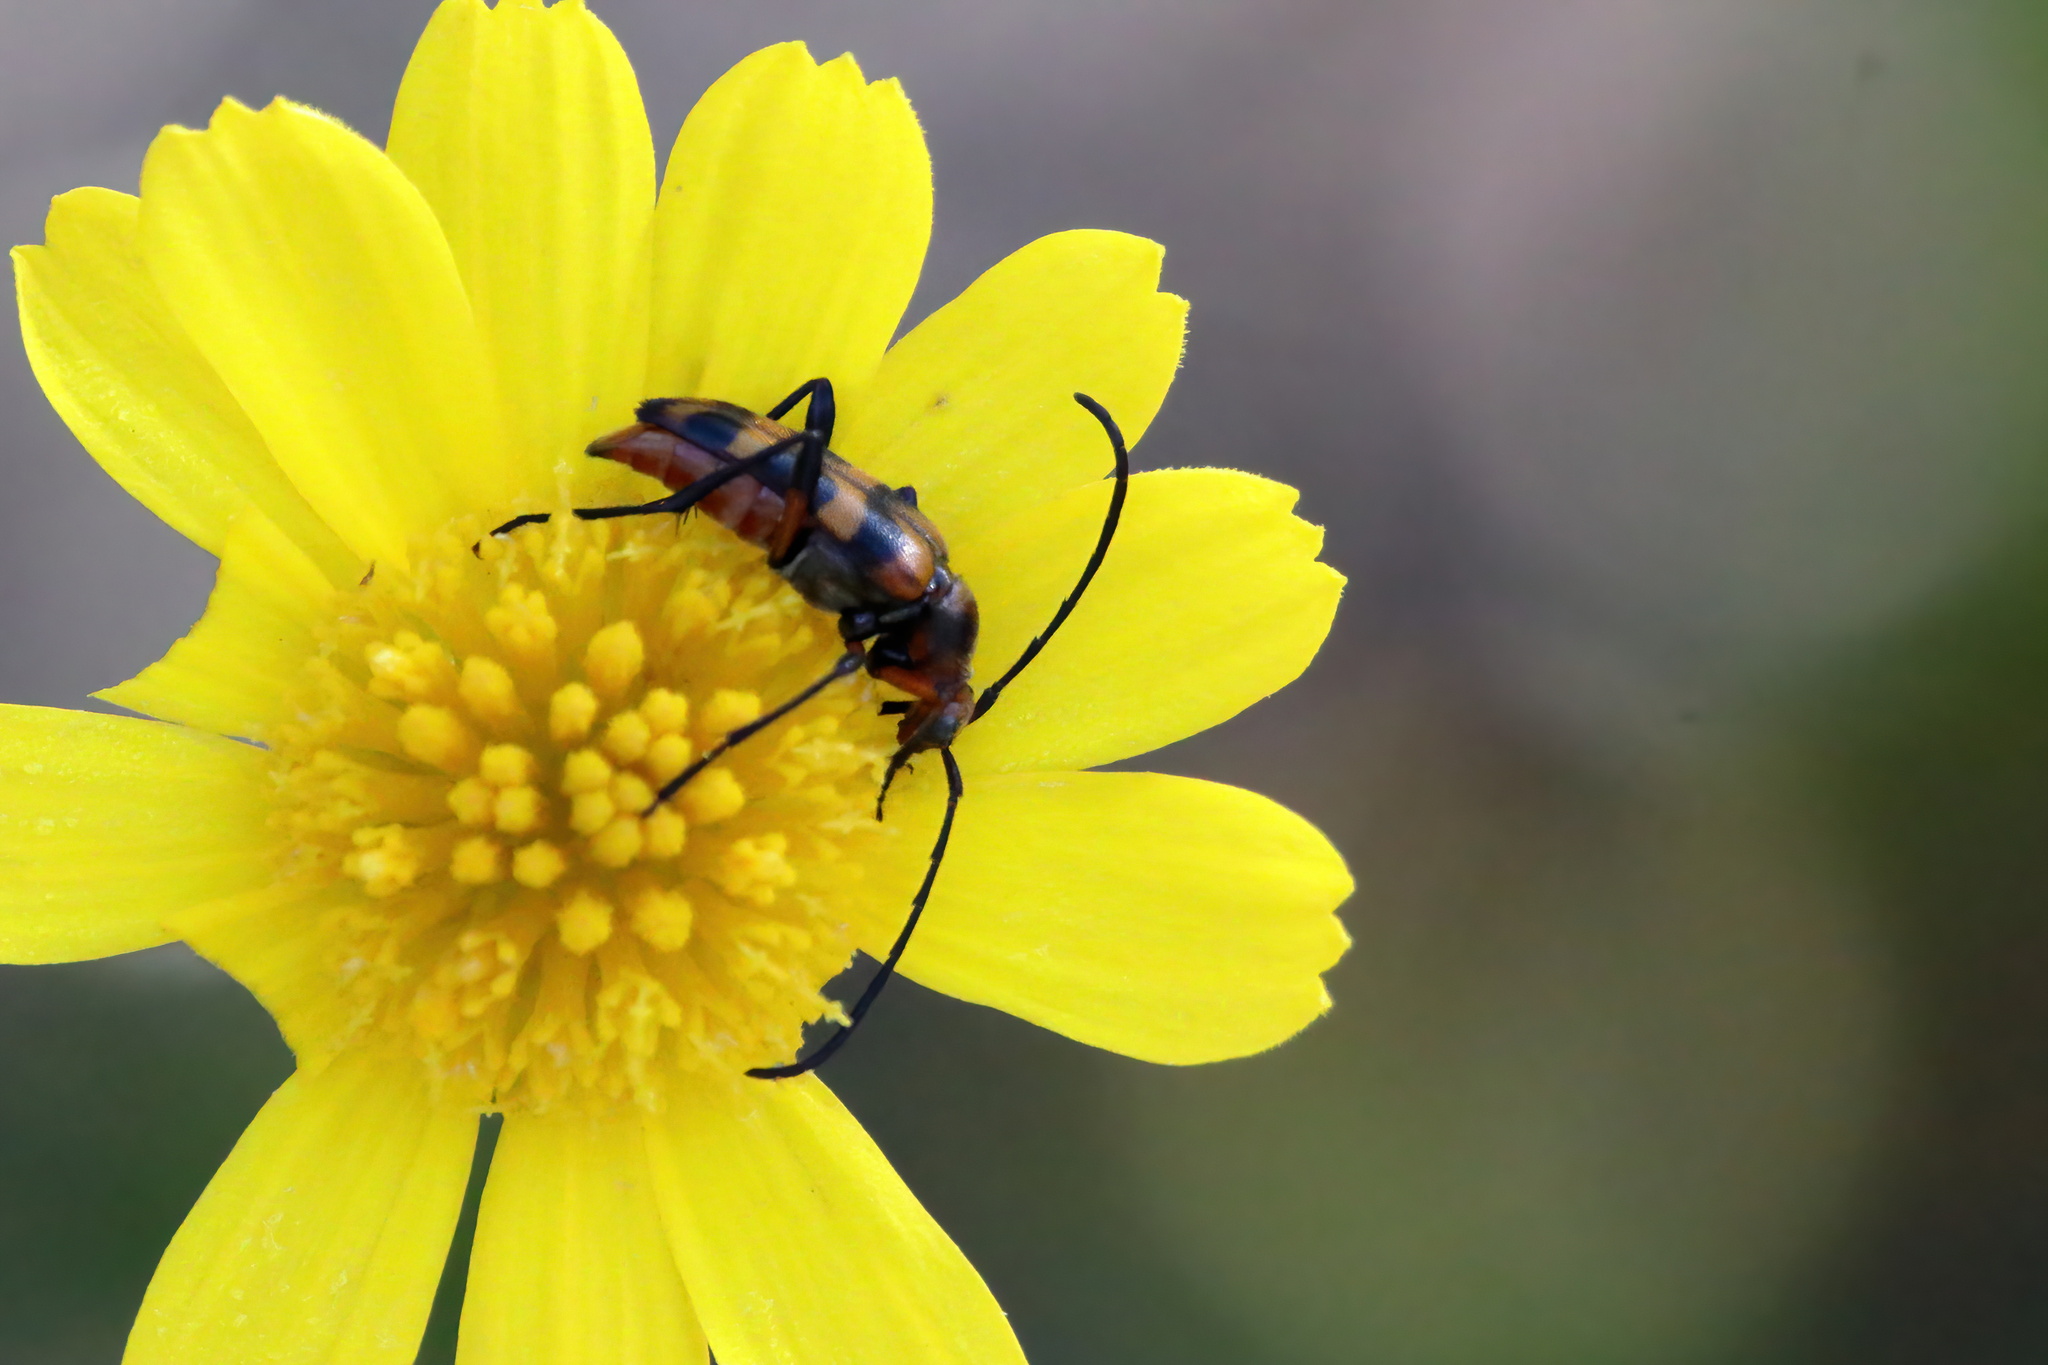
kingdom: Animalia
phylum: Arthropoda
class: Insecta
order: Coleoptera
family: Cerambycidae
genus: Strangalia
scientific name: Strangalia sexnotata
